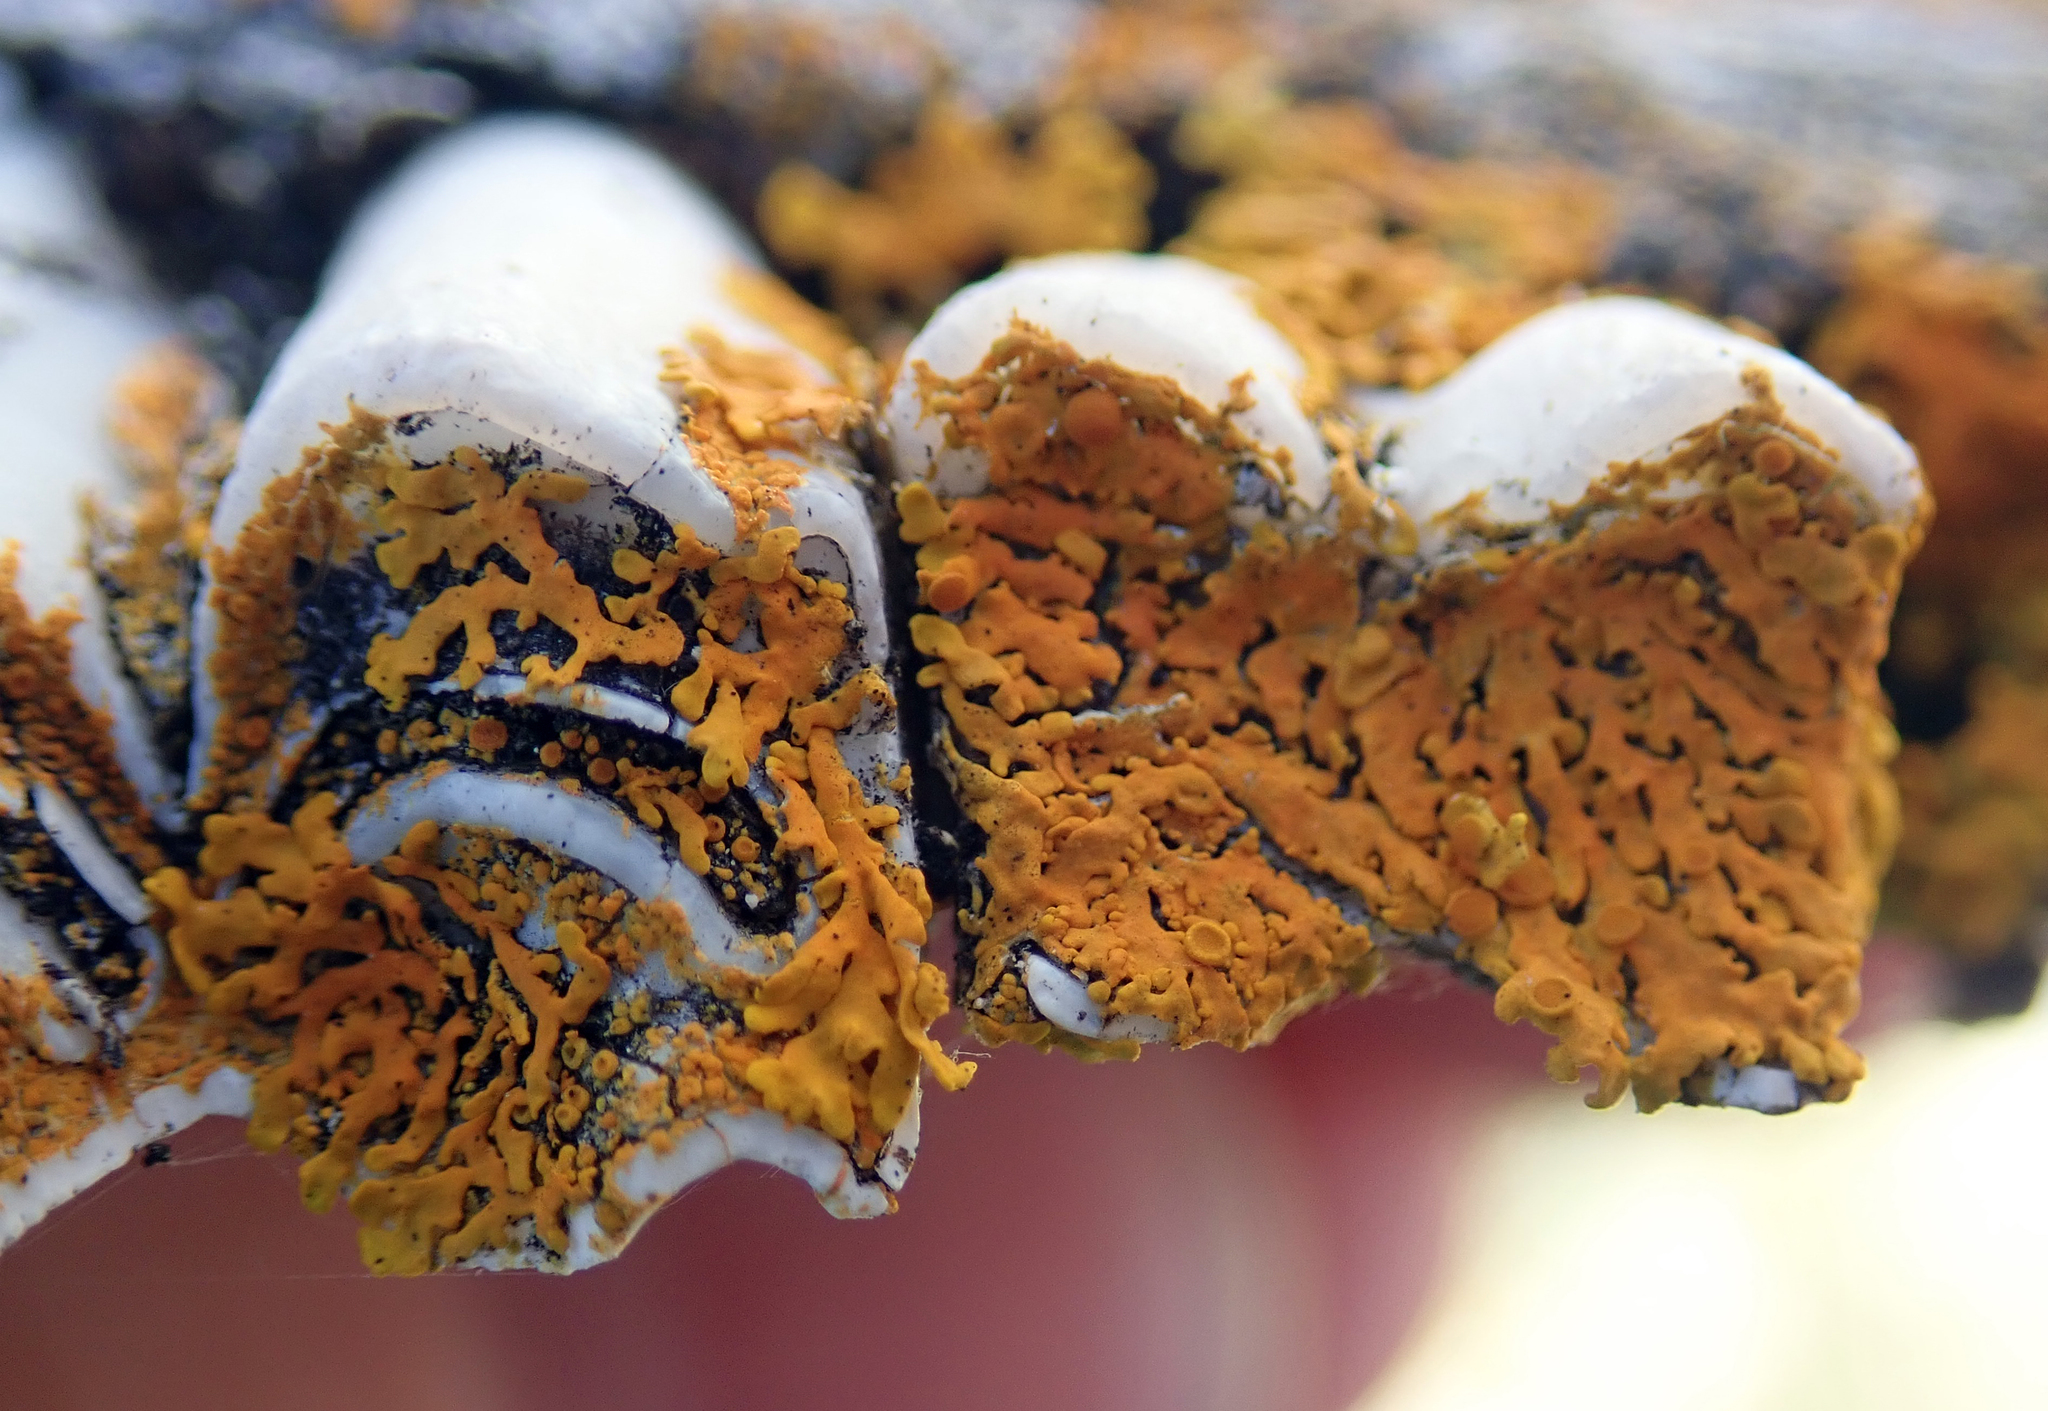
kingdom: Fungi
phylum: Ascomycota
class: Lecanoromycetes
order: Teloschistales
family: Teloschistaceae
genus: Dufourea
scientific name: Dufourea ligulata
